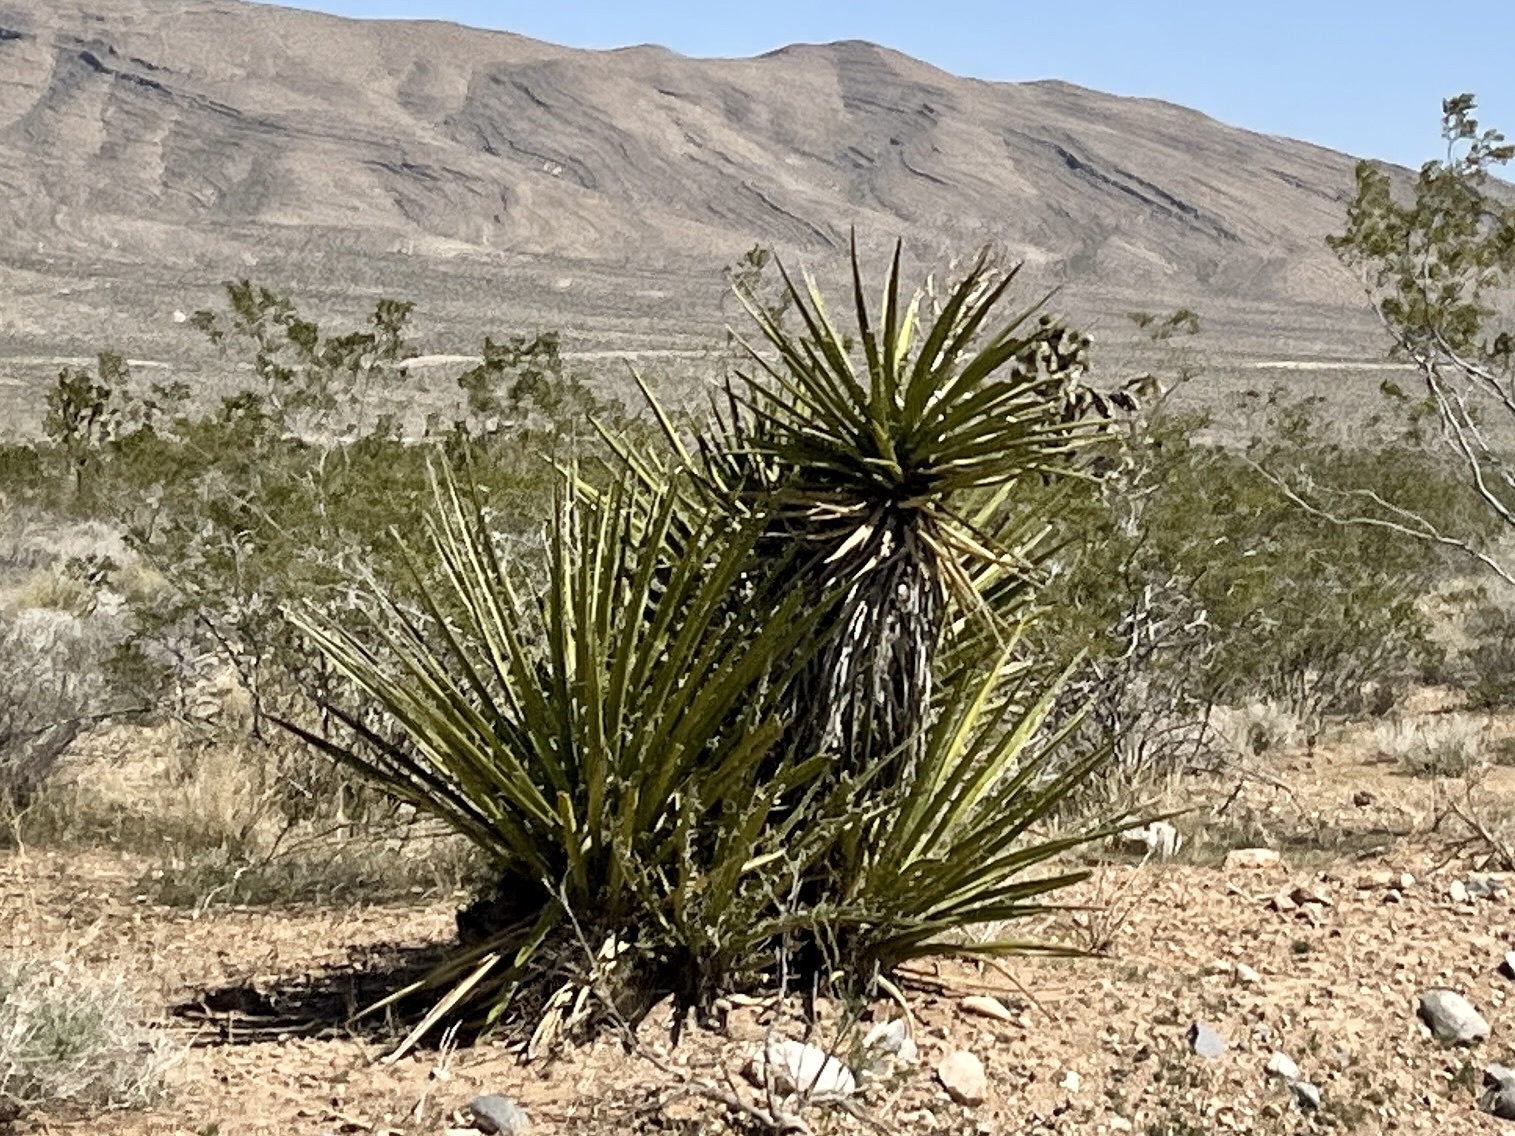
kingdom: Plantae
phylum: Tracheophyta
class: Liliopsida
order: Asparagales
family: Asparagaceae
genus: Yucca
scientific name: Yucca schidigera
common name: Mojave yucca
